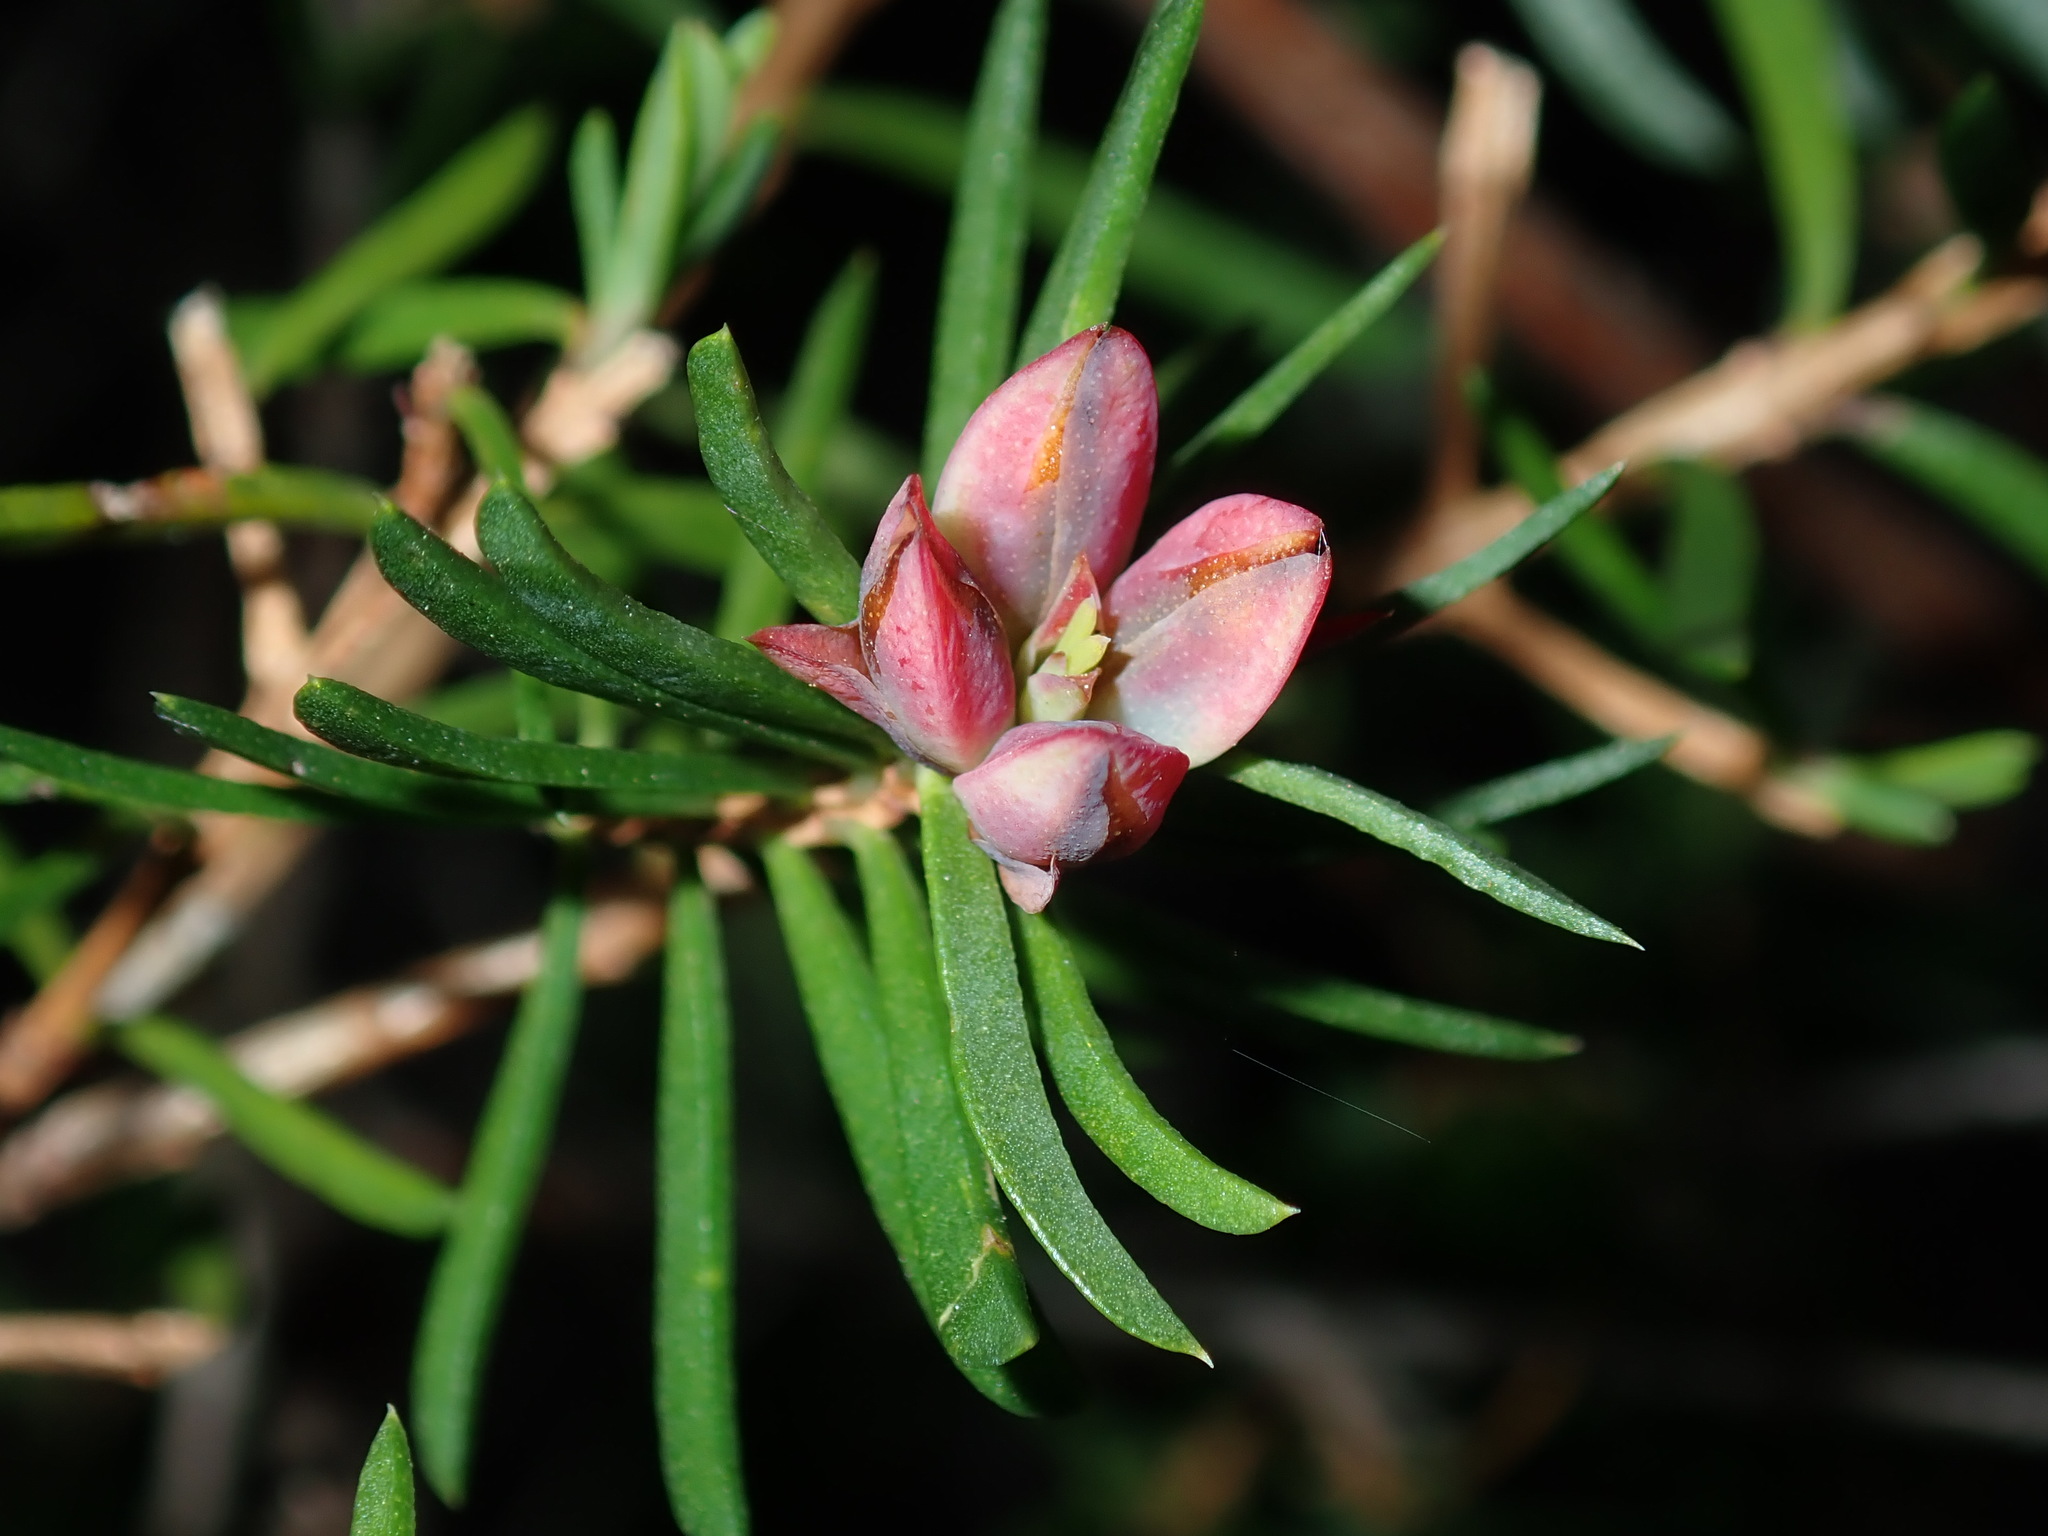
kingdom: Plantae
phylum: Tracheophyta
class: Magnoliopsida
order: Myrtales
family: Myrtaceae
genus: Darwinia
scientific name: Darwinia procera
